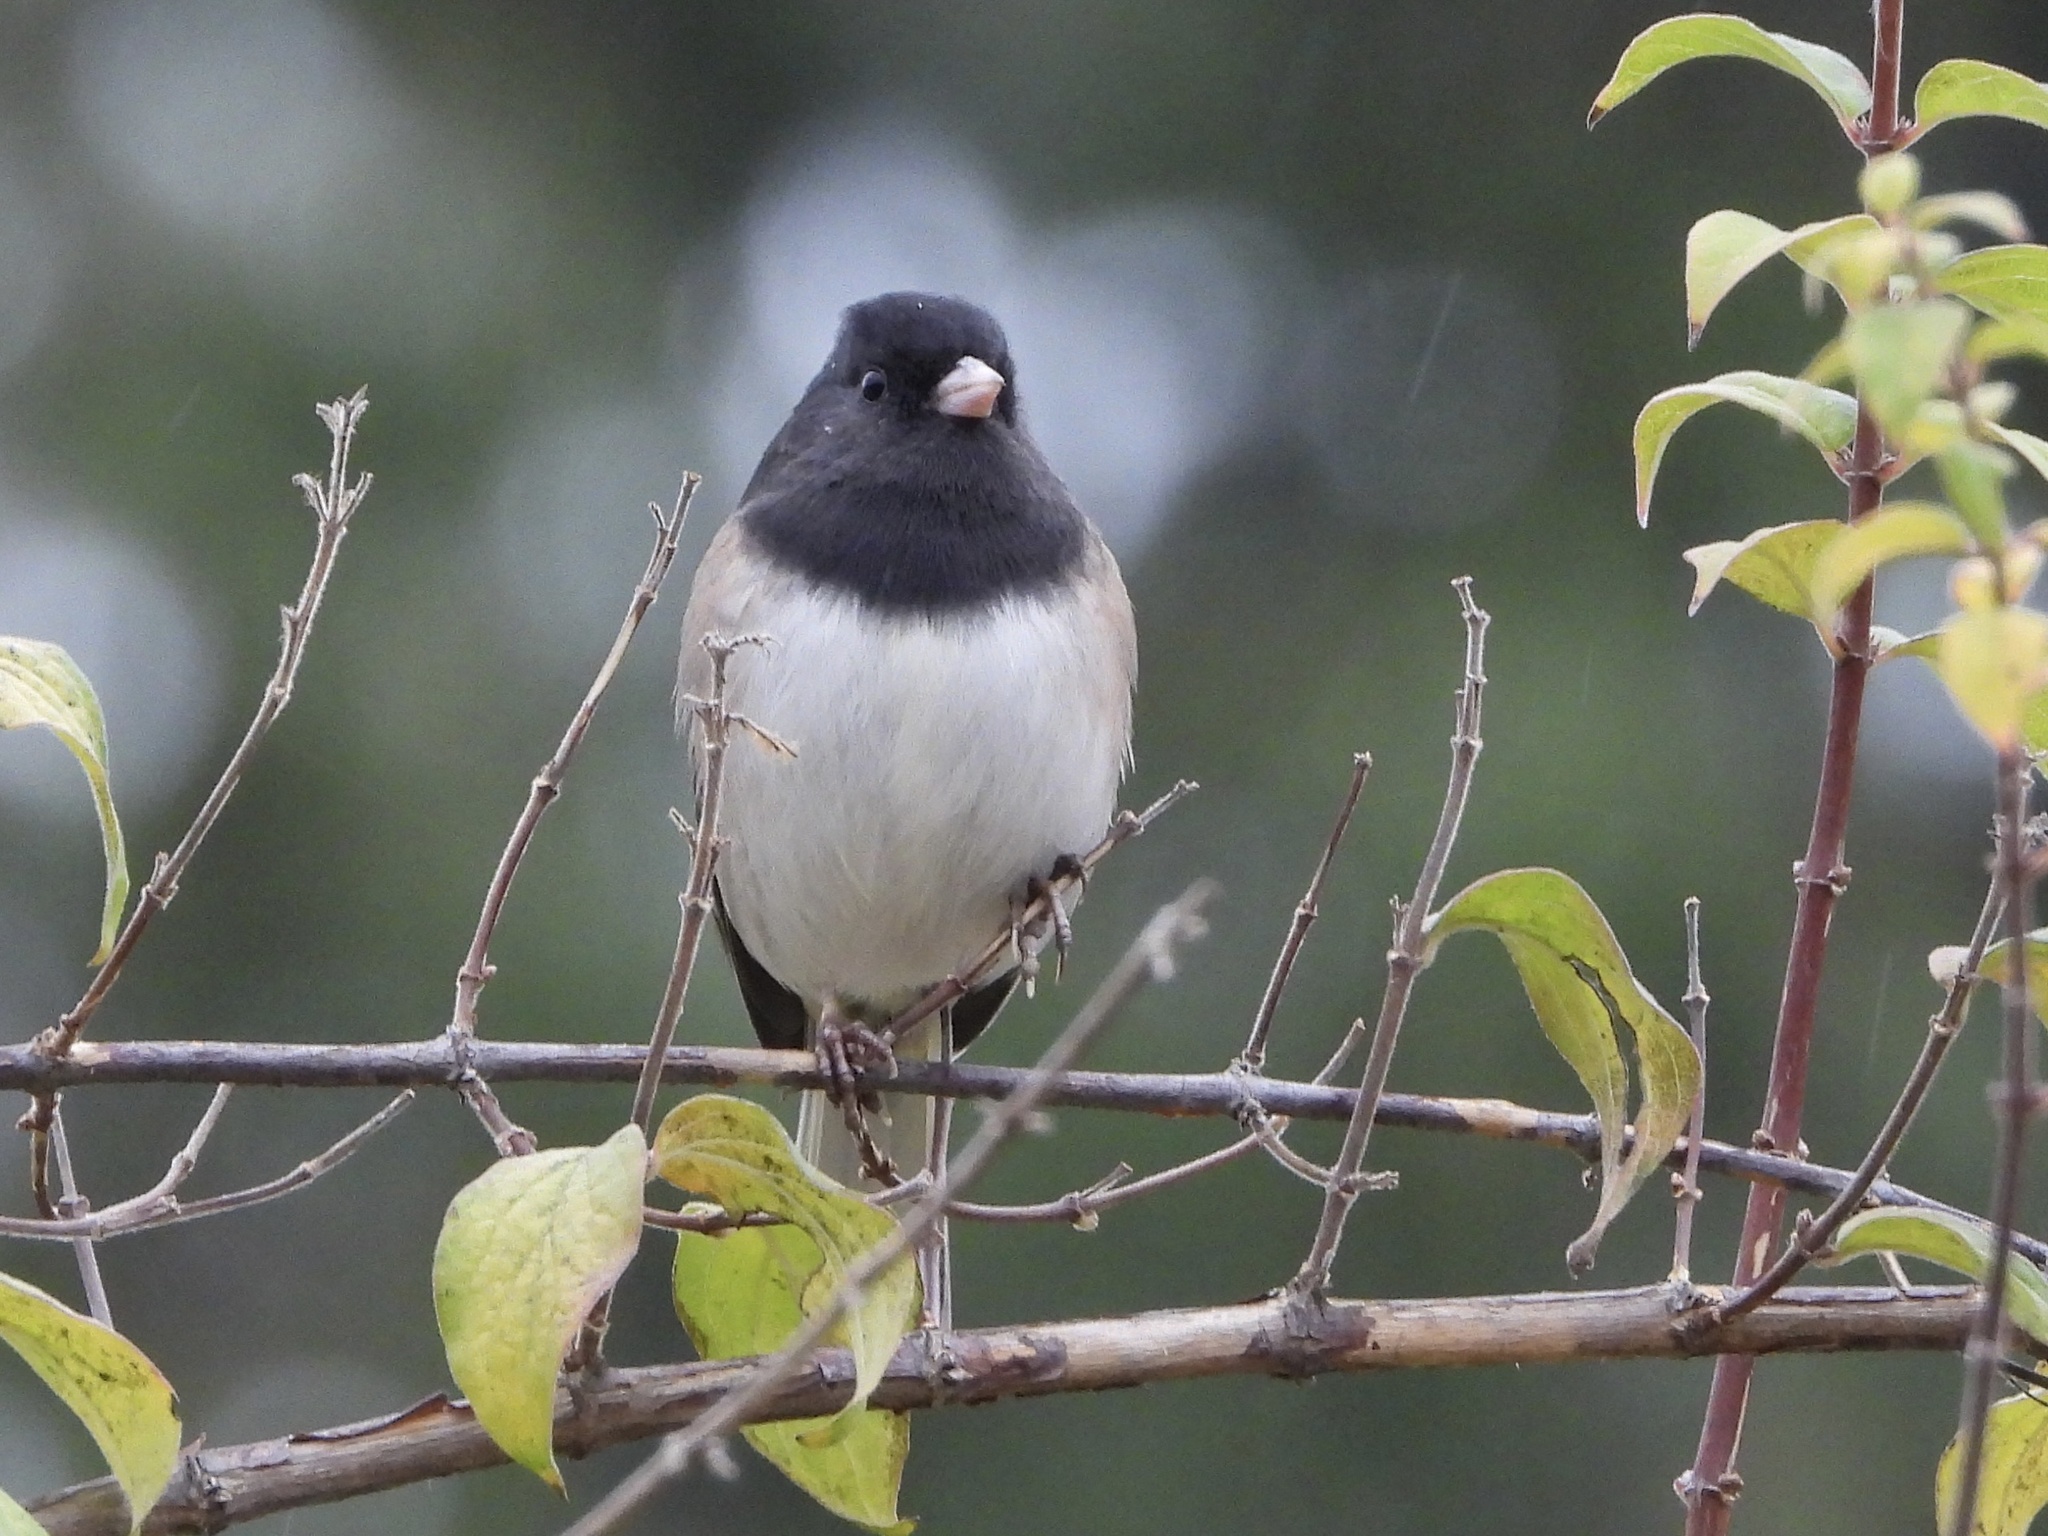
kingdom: Animalia
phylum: Chordata
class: Aves
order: Passeriformes
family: Passerellidae
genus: Junco
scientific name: Junco hyemalis
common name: Dark-eyed junco
